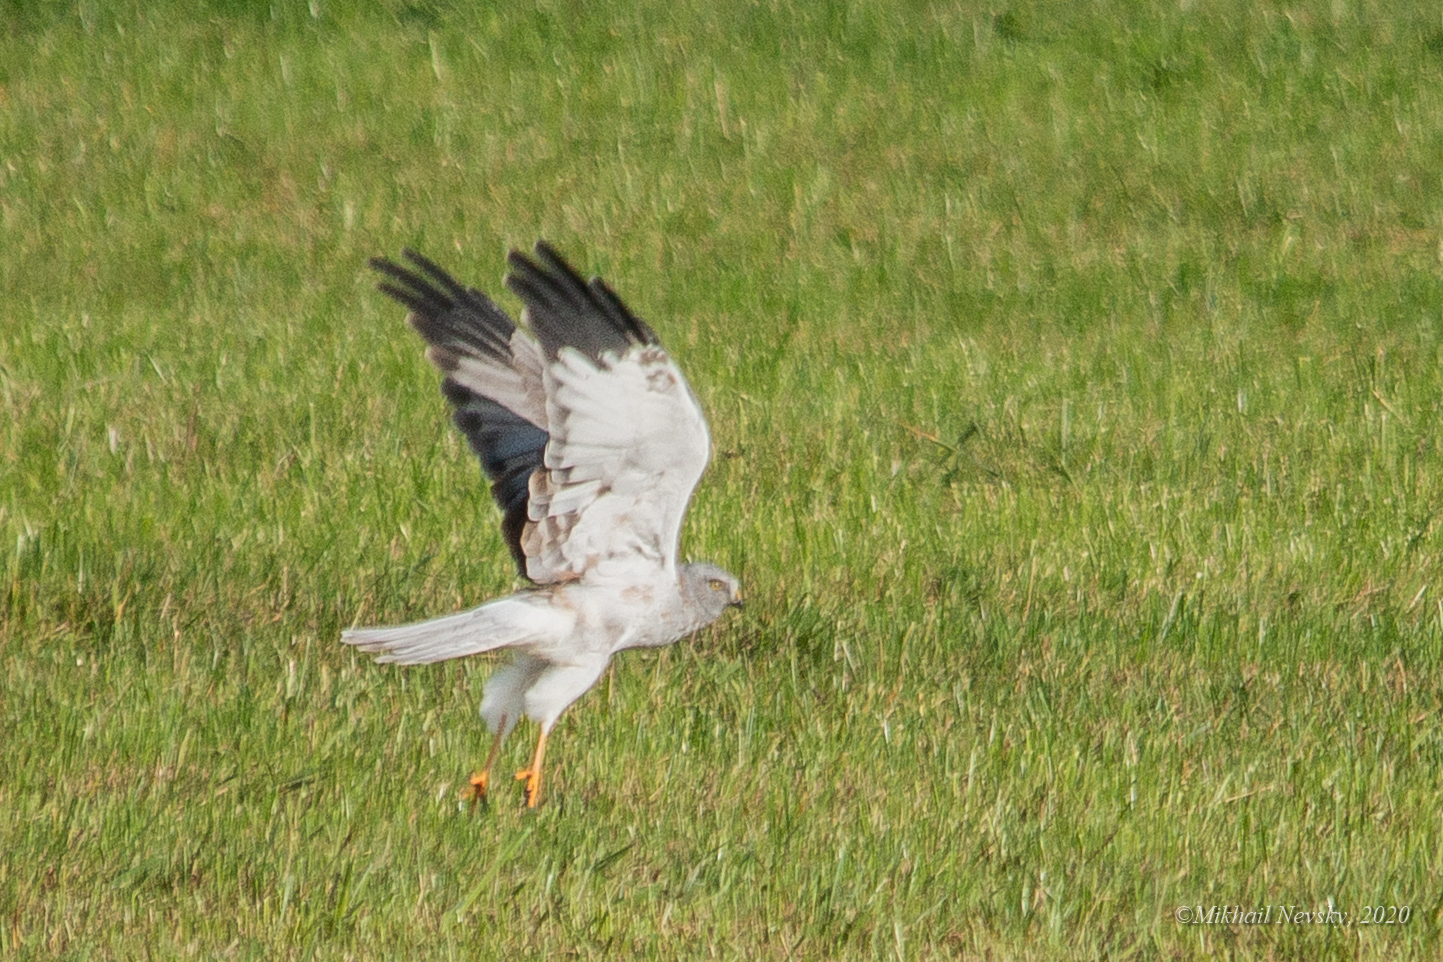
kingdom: Animalia
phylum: Chordata
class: Aves
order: Accipitriformes
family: Accipitridae
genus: Circus
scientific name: Circus cyaneus
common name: Hen harrier
